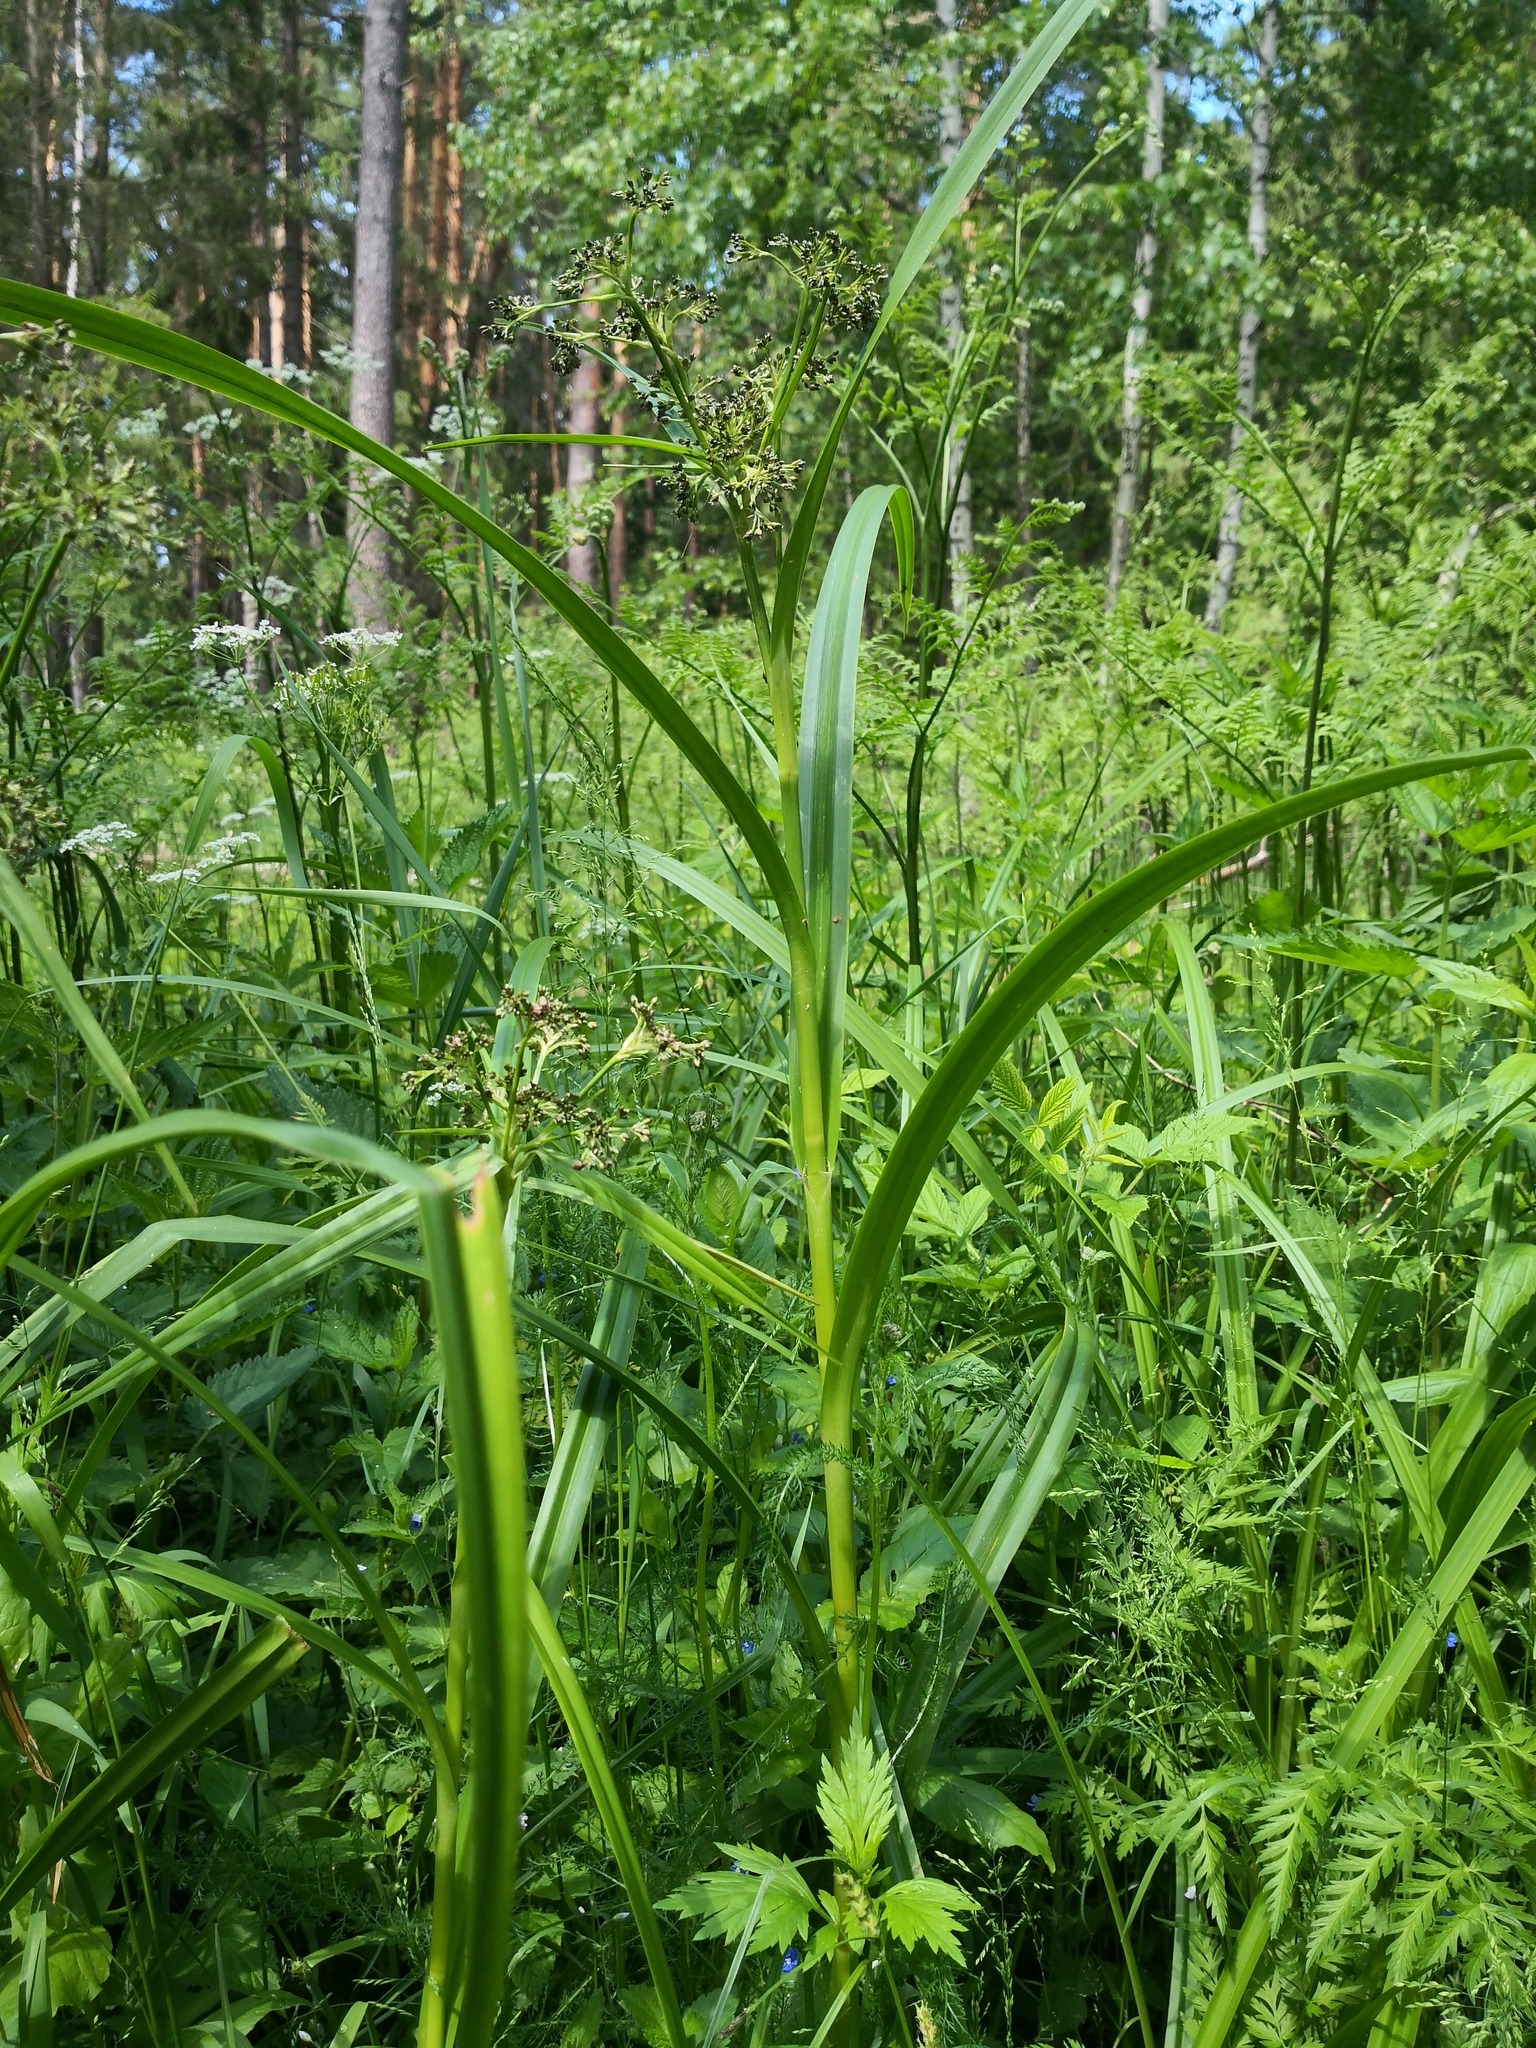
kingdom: Plantae
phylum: Tracheophyta
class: Liliopsida
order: Poales
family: Cyperaceae
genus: Scirpus
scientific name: Scirpus sylvaticus
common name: Wood club-rush
